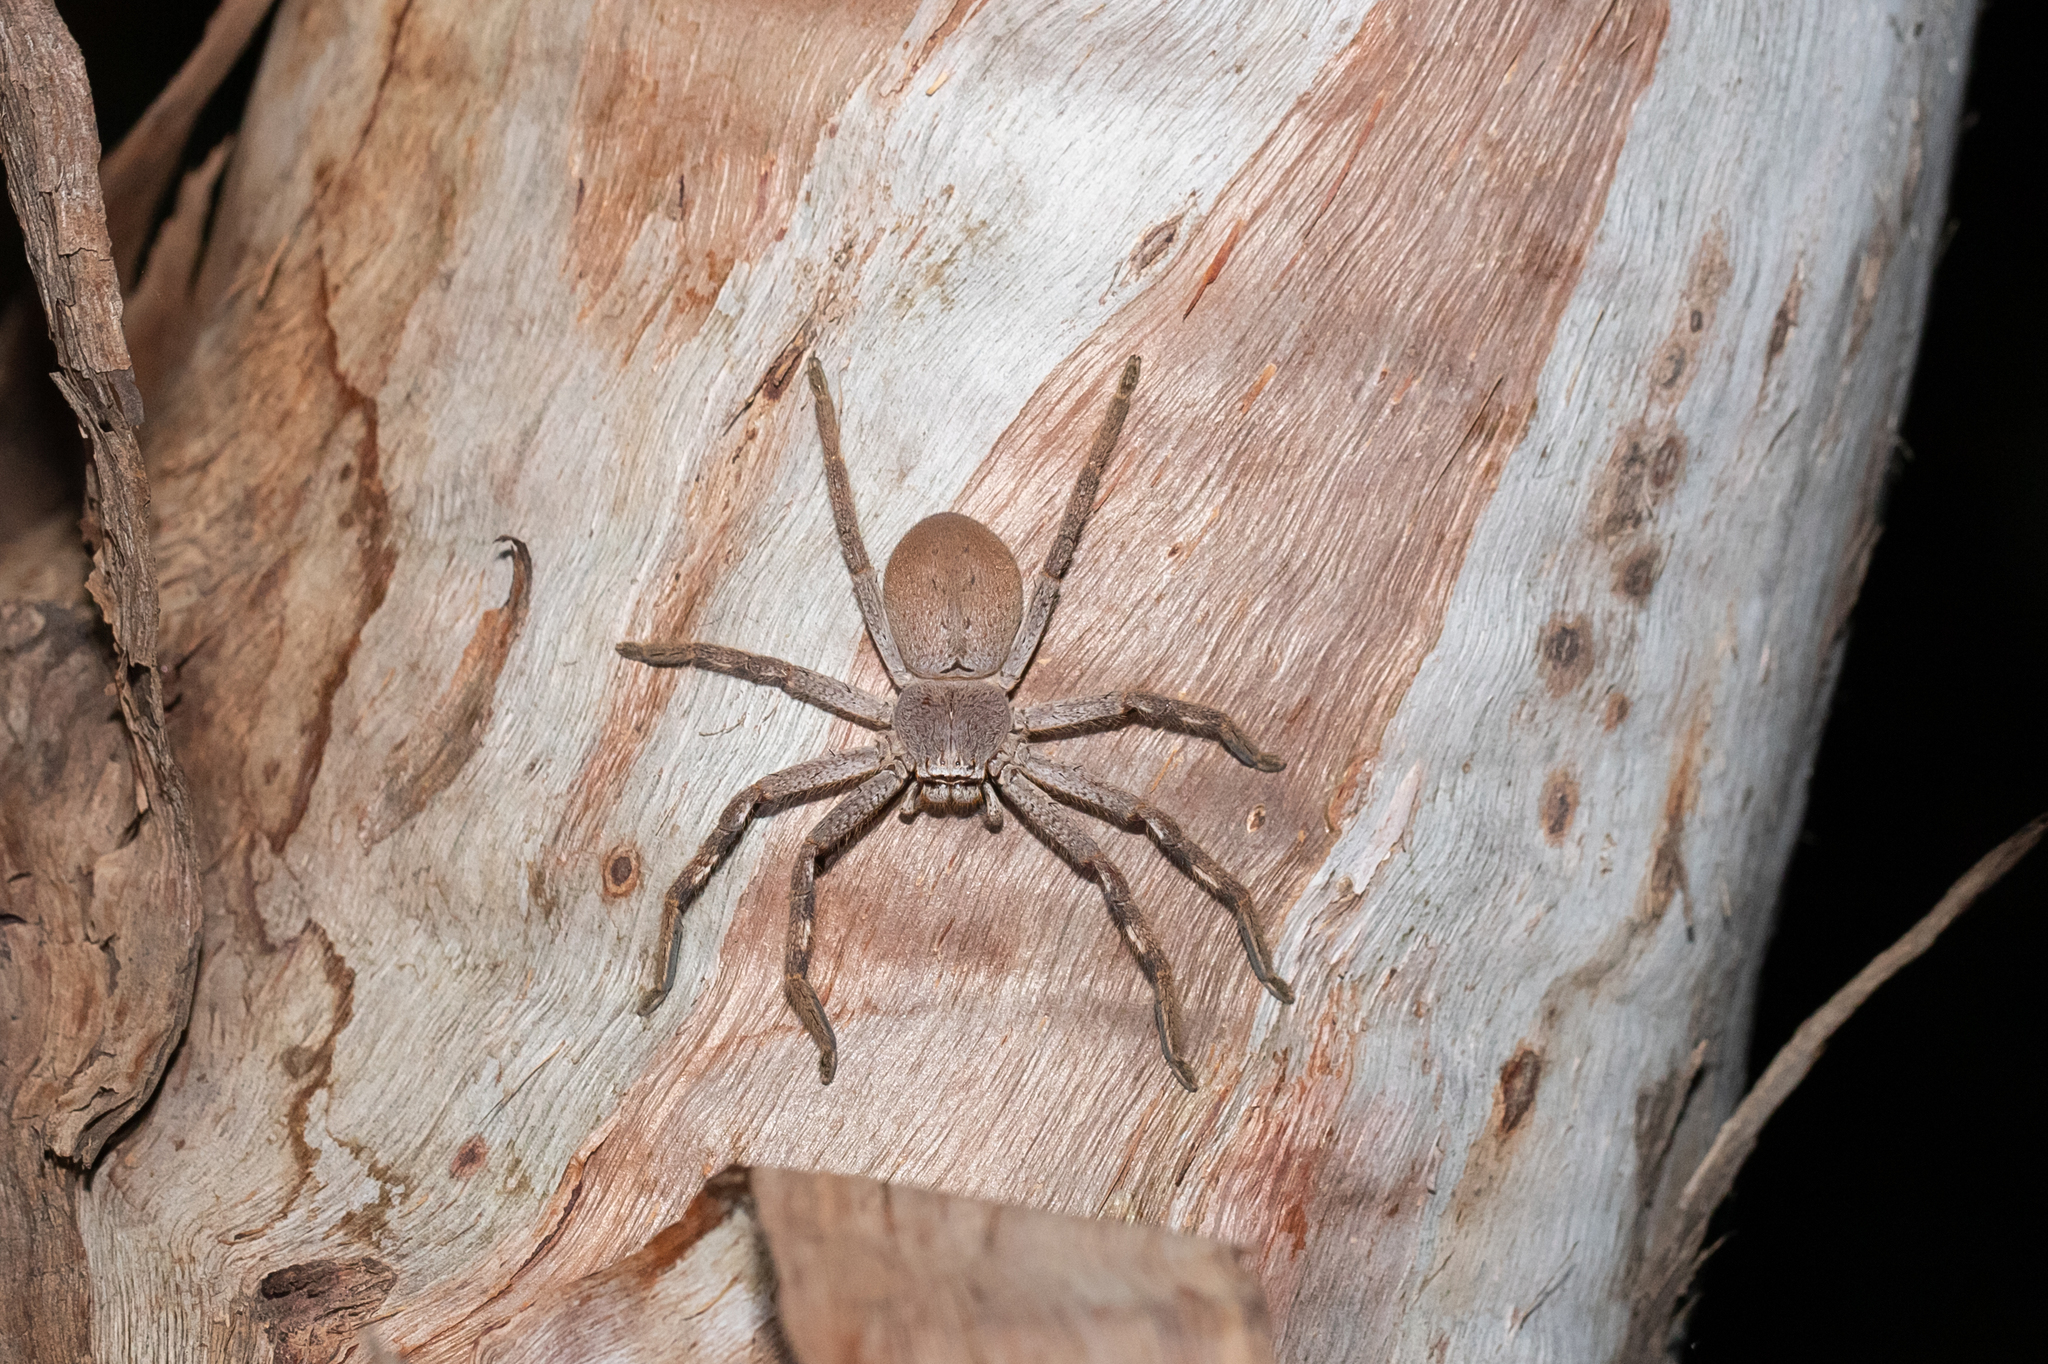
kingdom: Animalia
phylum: Arthropoda
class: Arachnida
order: Araneae
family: Sparassidae
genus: Isopedella
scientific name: Isopedella saundersi
